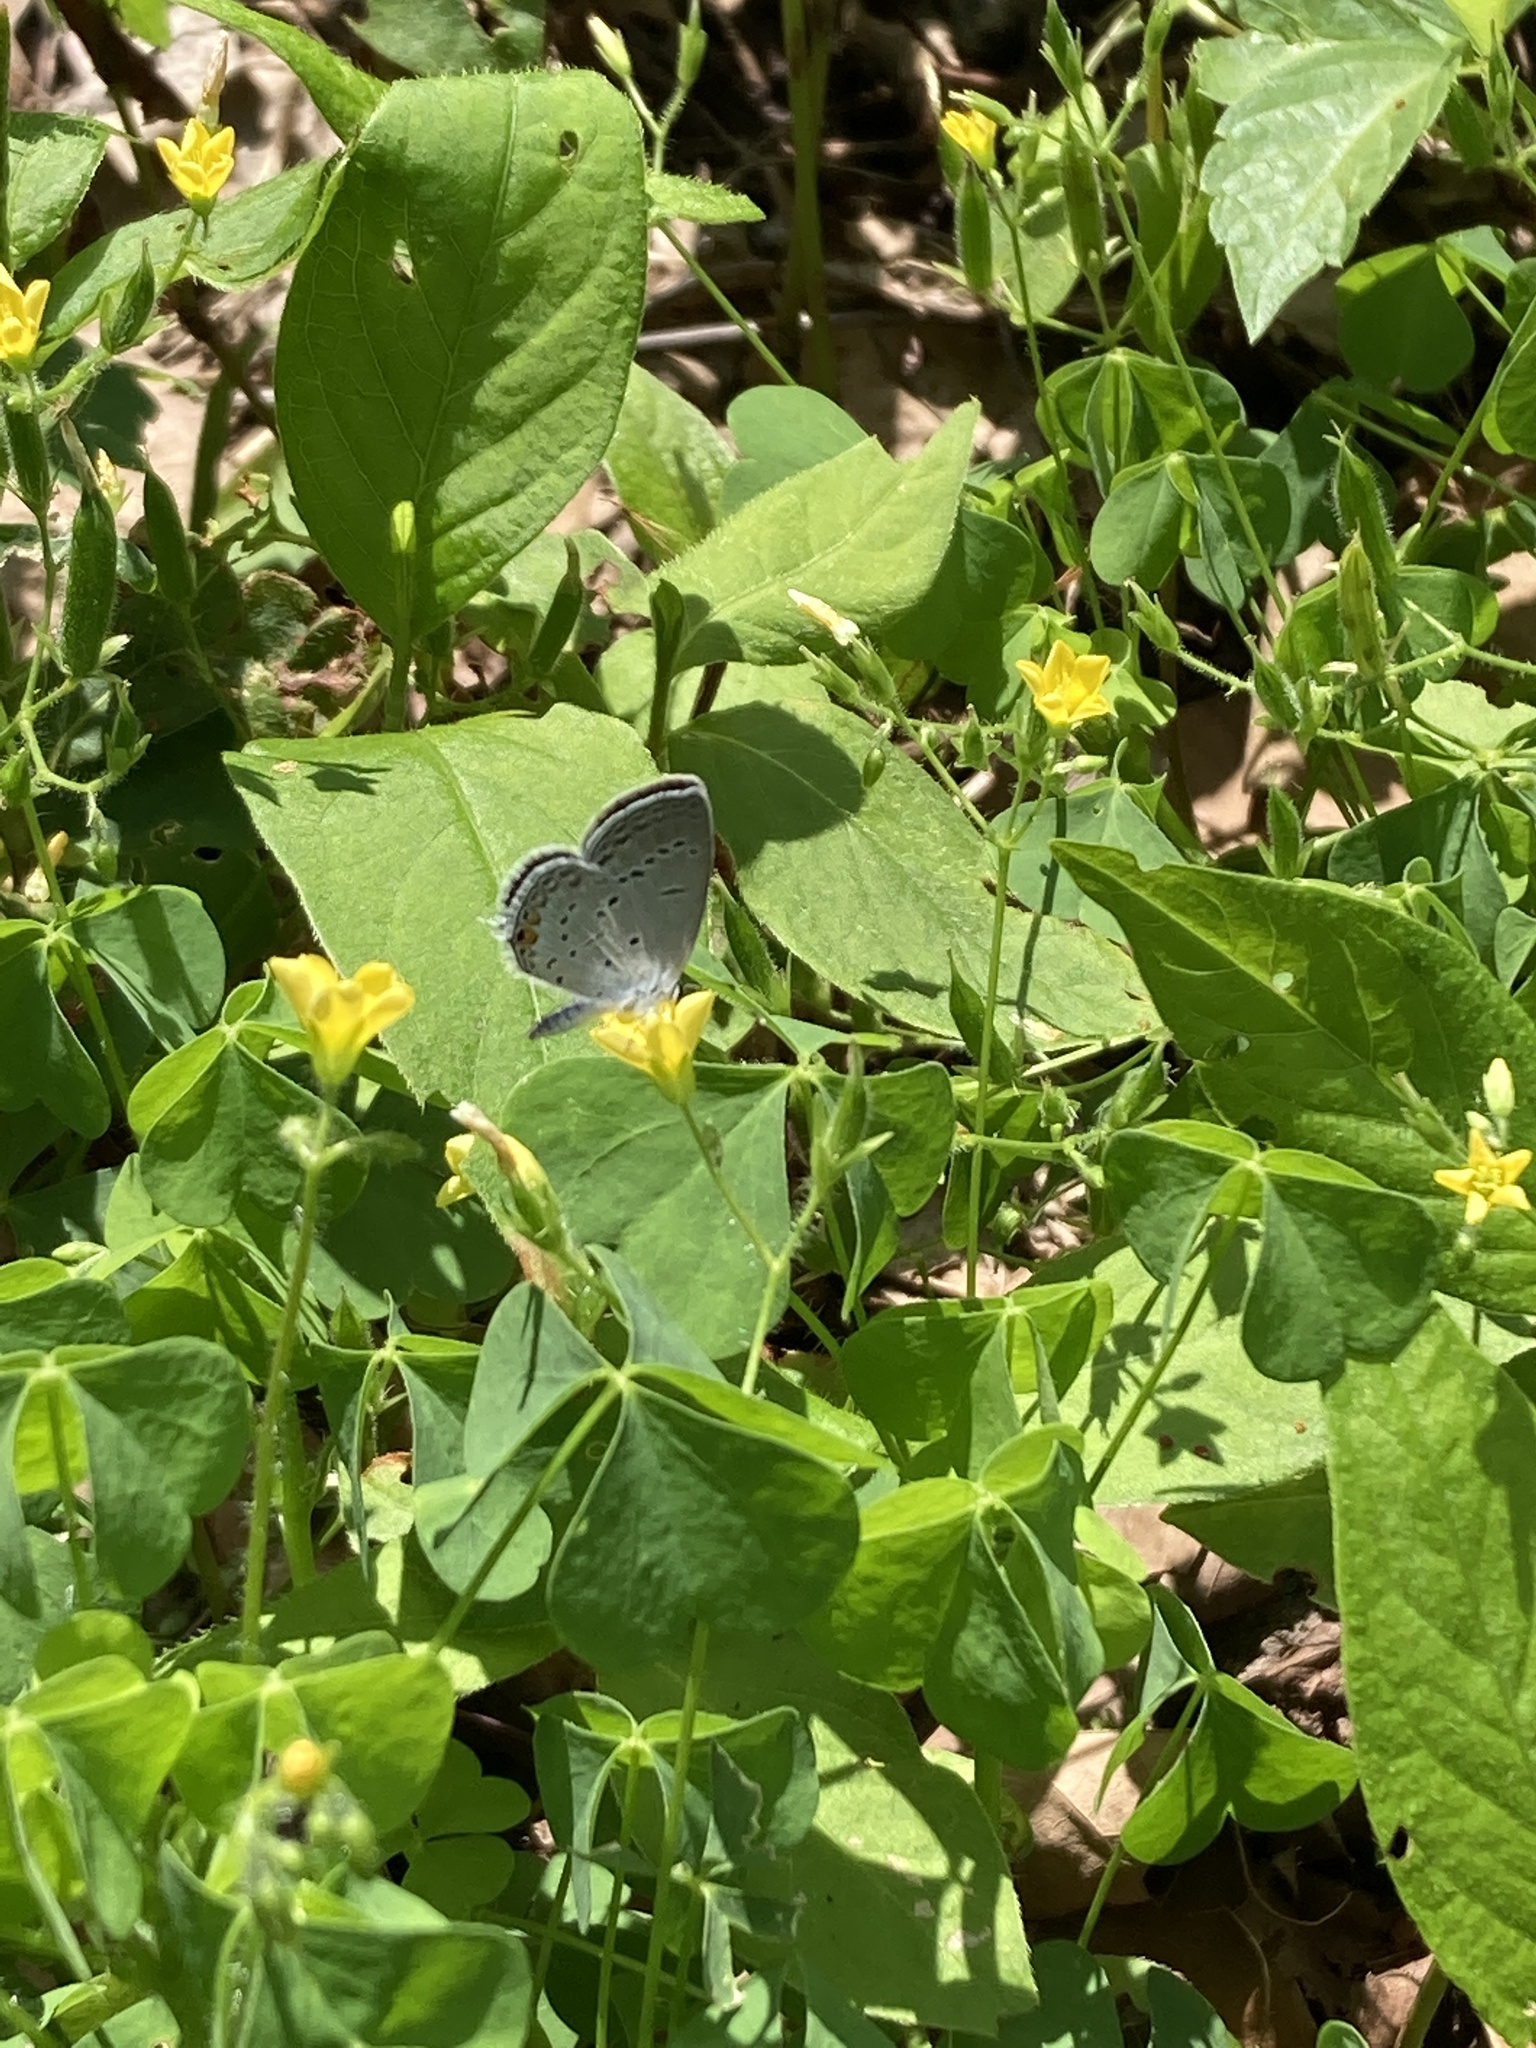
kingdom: Animalia
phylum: Arthropoda
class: Insecta
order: Lepidoptera
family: Lycaenidae
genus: Elkalyce
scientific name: Elkalyce comyntas
